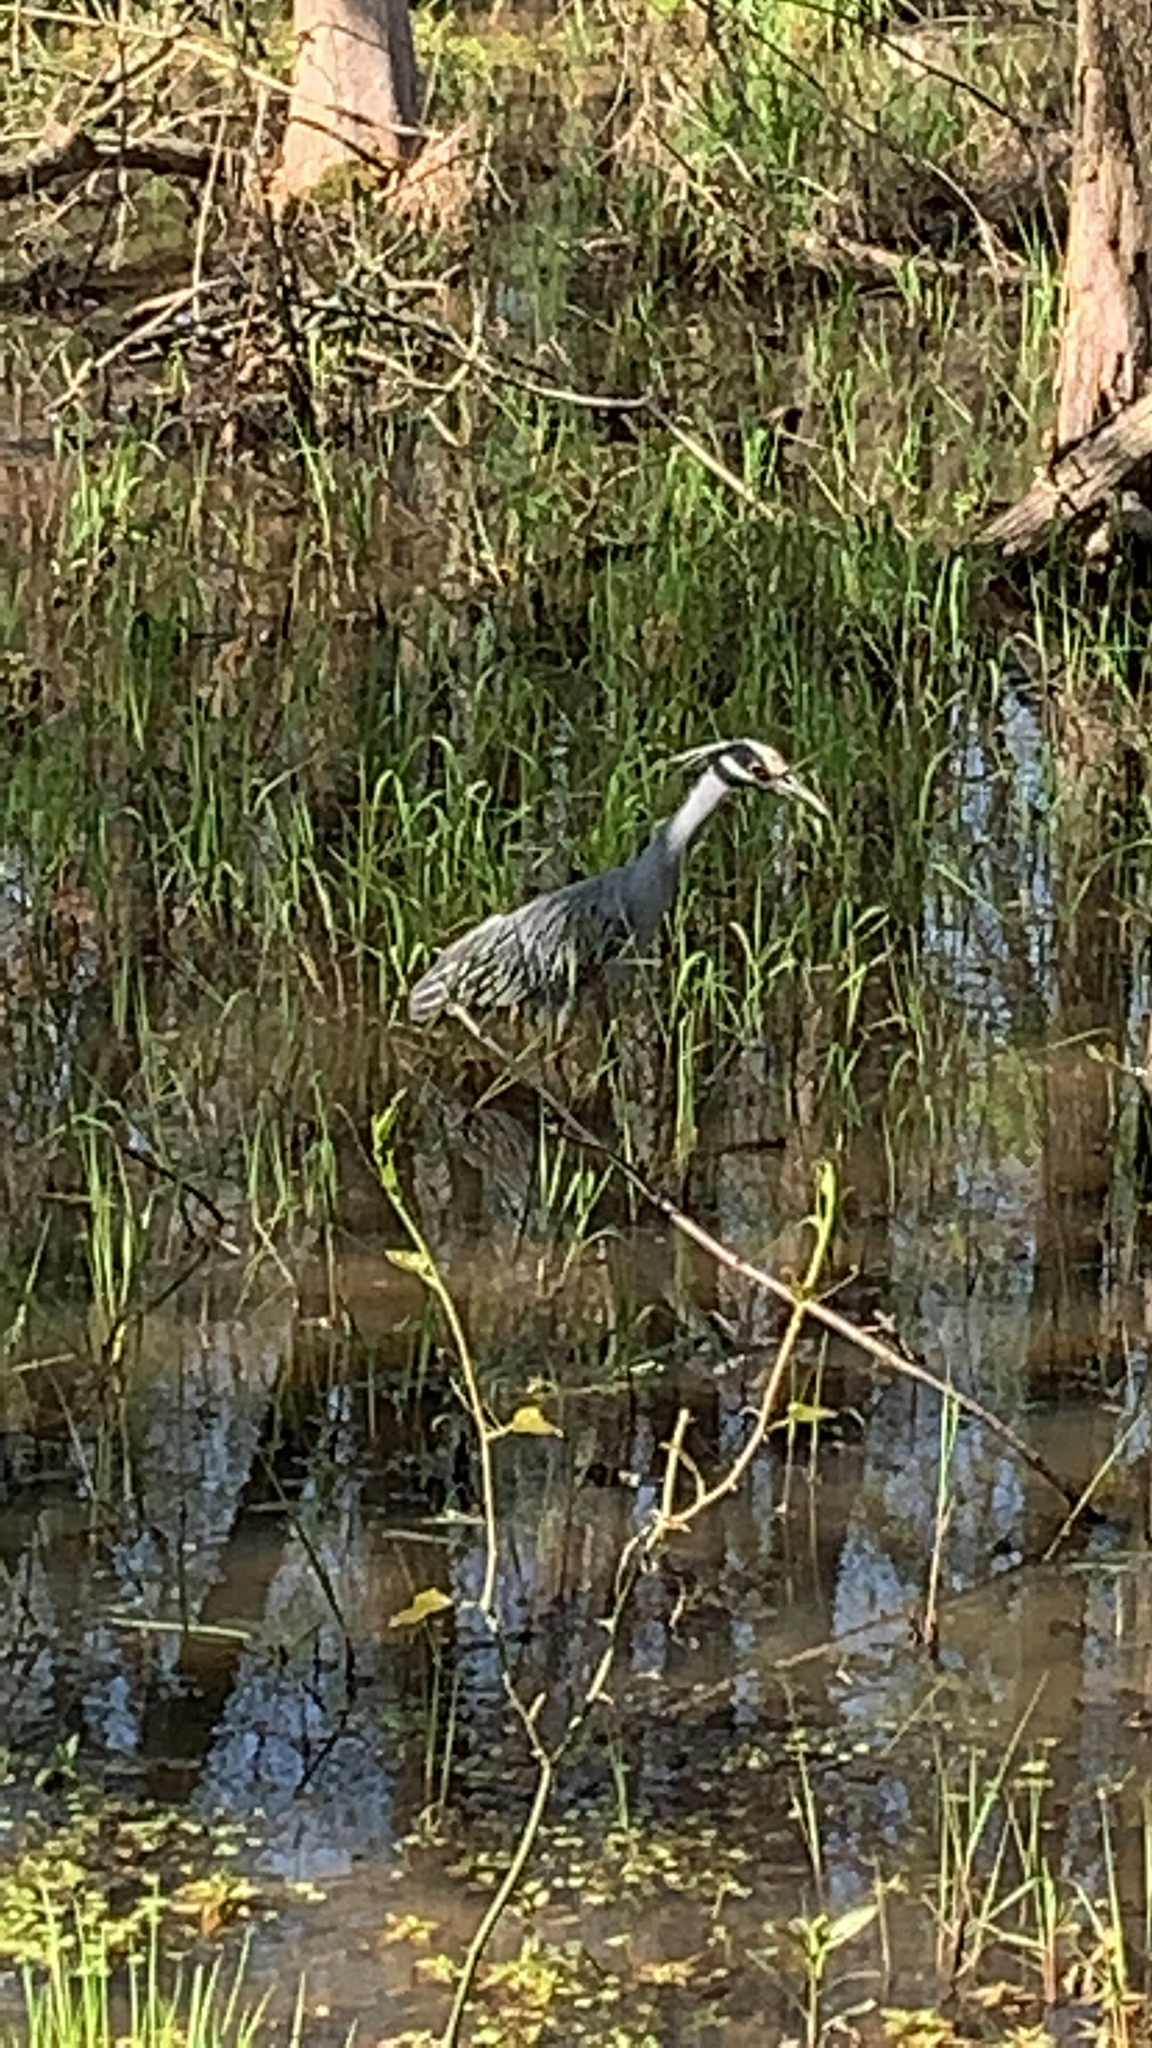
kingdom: Animalia
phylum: Chordata
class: Aves
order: Pelecaniformes
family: Ardeidae
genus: Nyctanassa
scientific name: Nyctanassa violacea
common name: Yellow-crowned night heron
